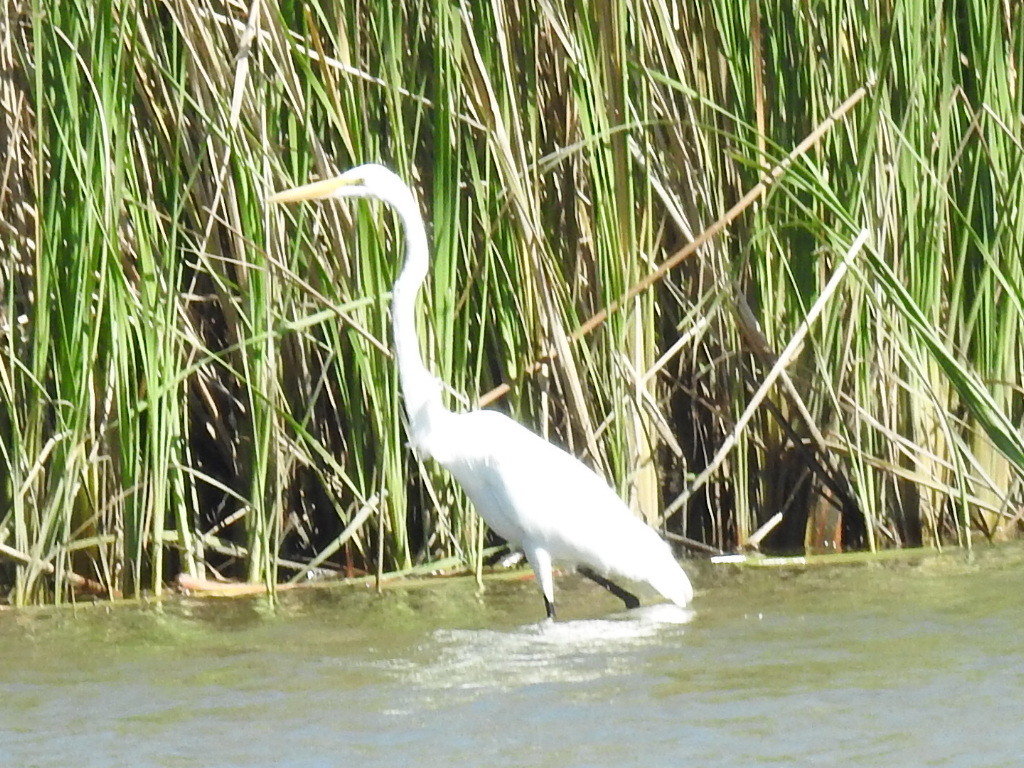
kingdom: Animalia
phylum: Chordata
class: Aves
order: Pelecaniformes
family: Ardeidae
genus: Ardea
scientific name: Ardea alba
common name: Great egret
